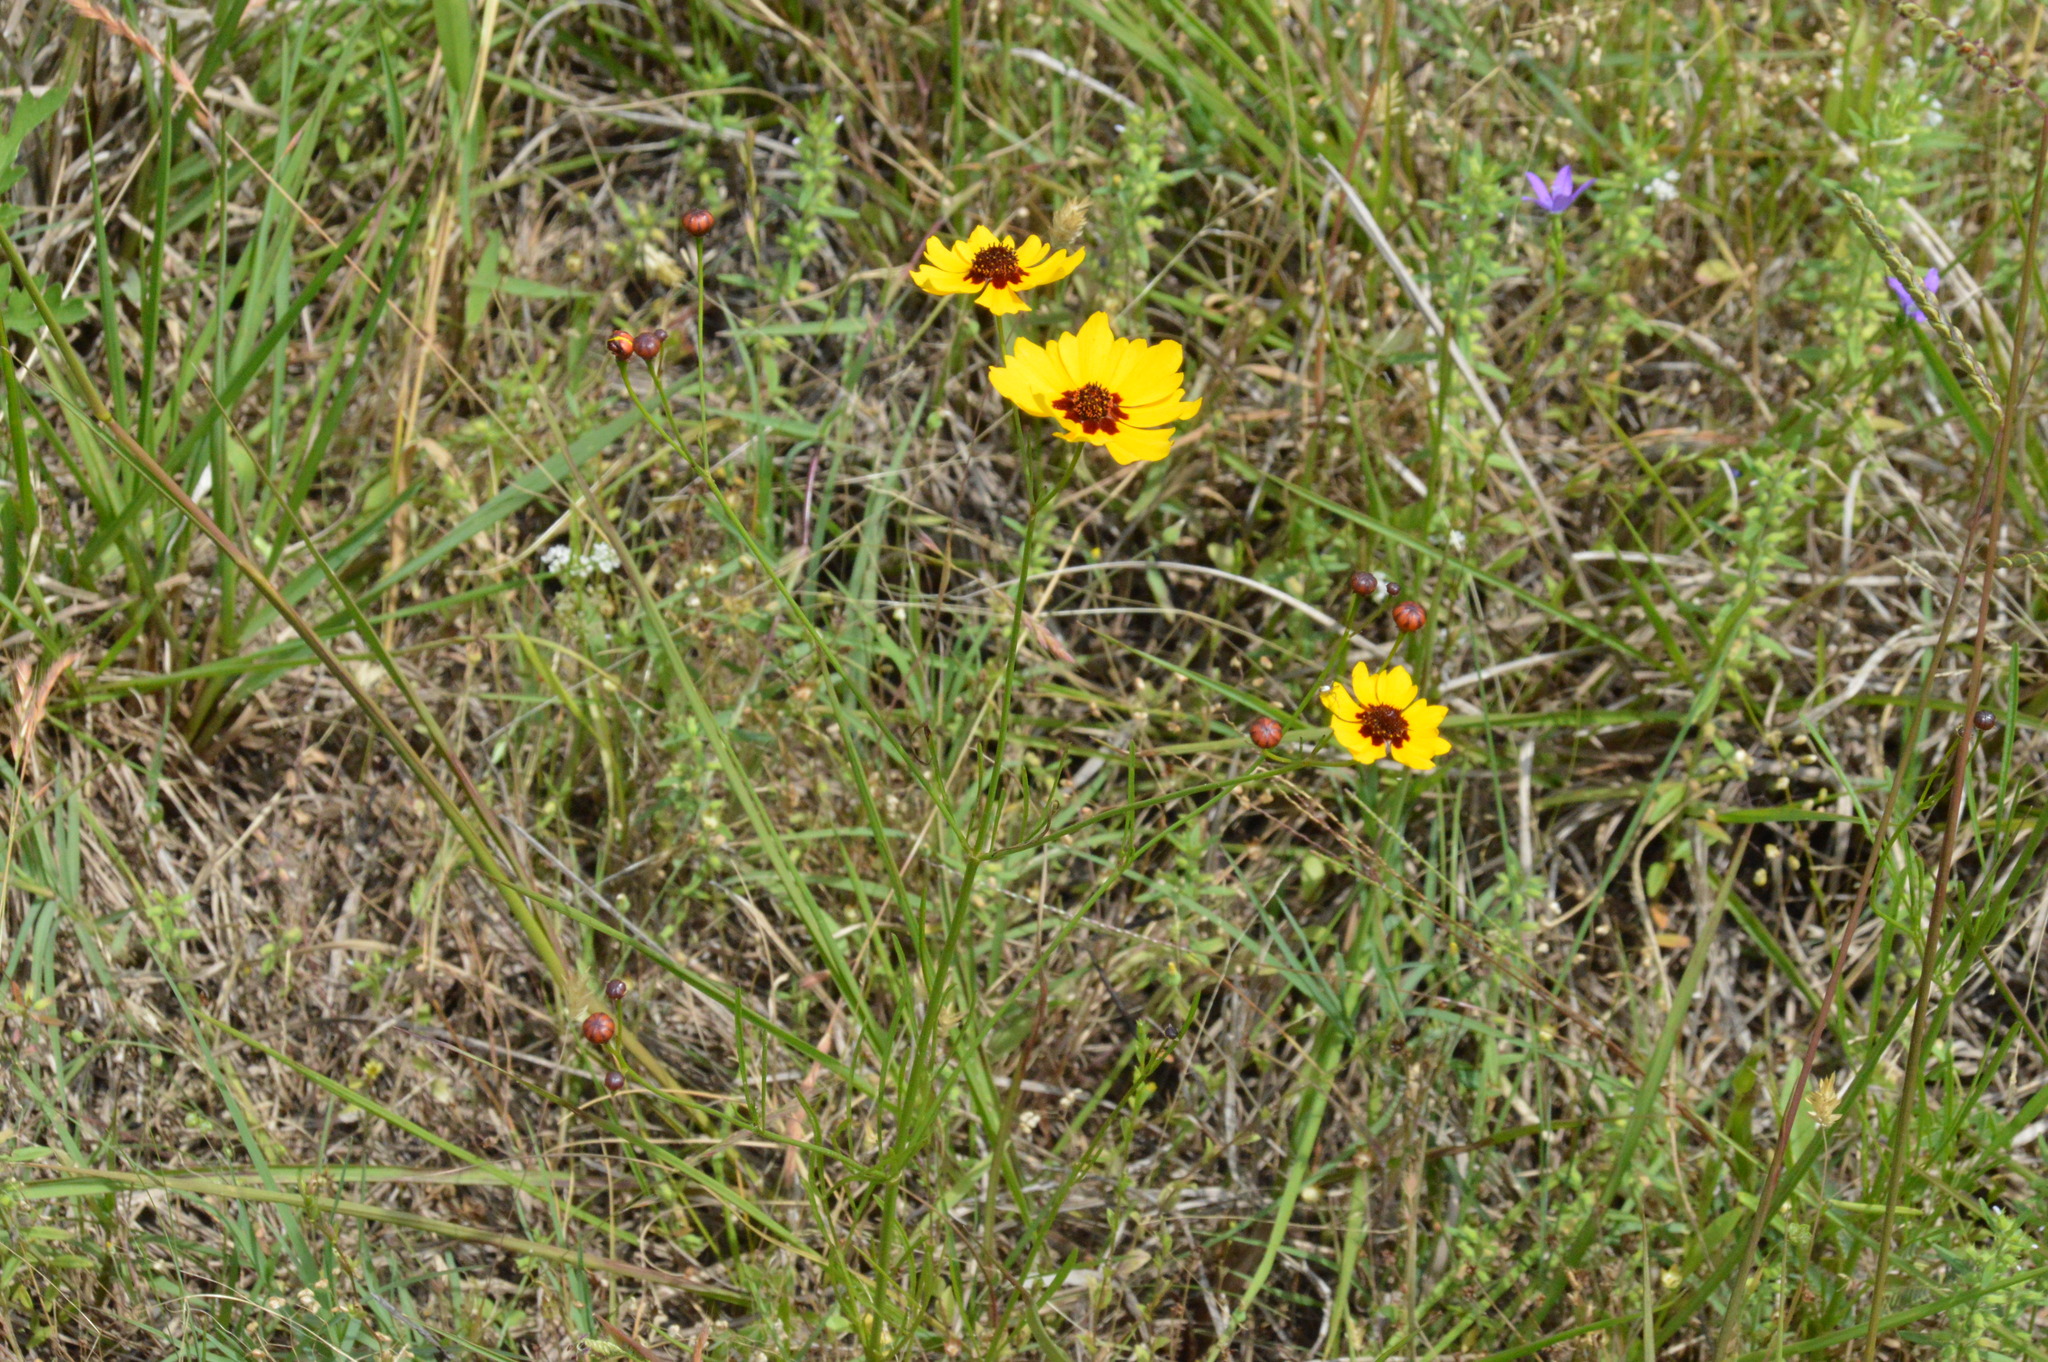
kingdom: Plantae
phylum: Tracheophyta
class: Magnoliopsida
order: Asterales
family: Asteraceae
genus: Coreopsis
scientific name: Coreopsis tinctoria
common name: Garden tickseed
